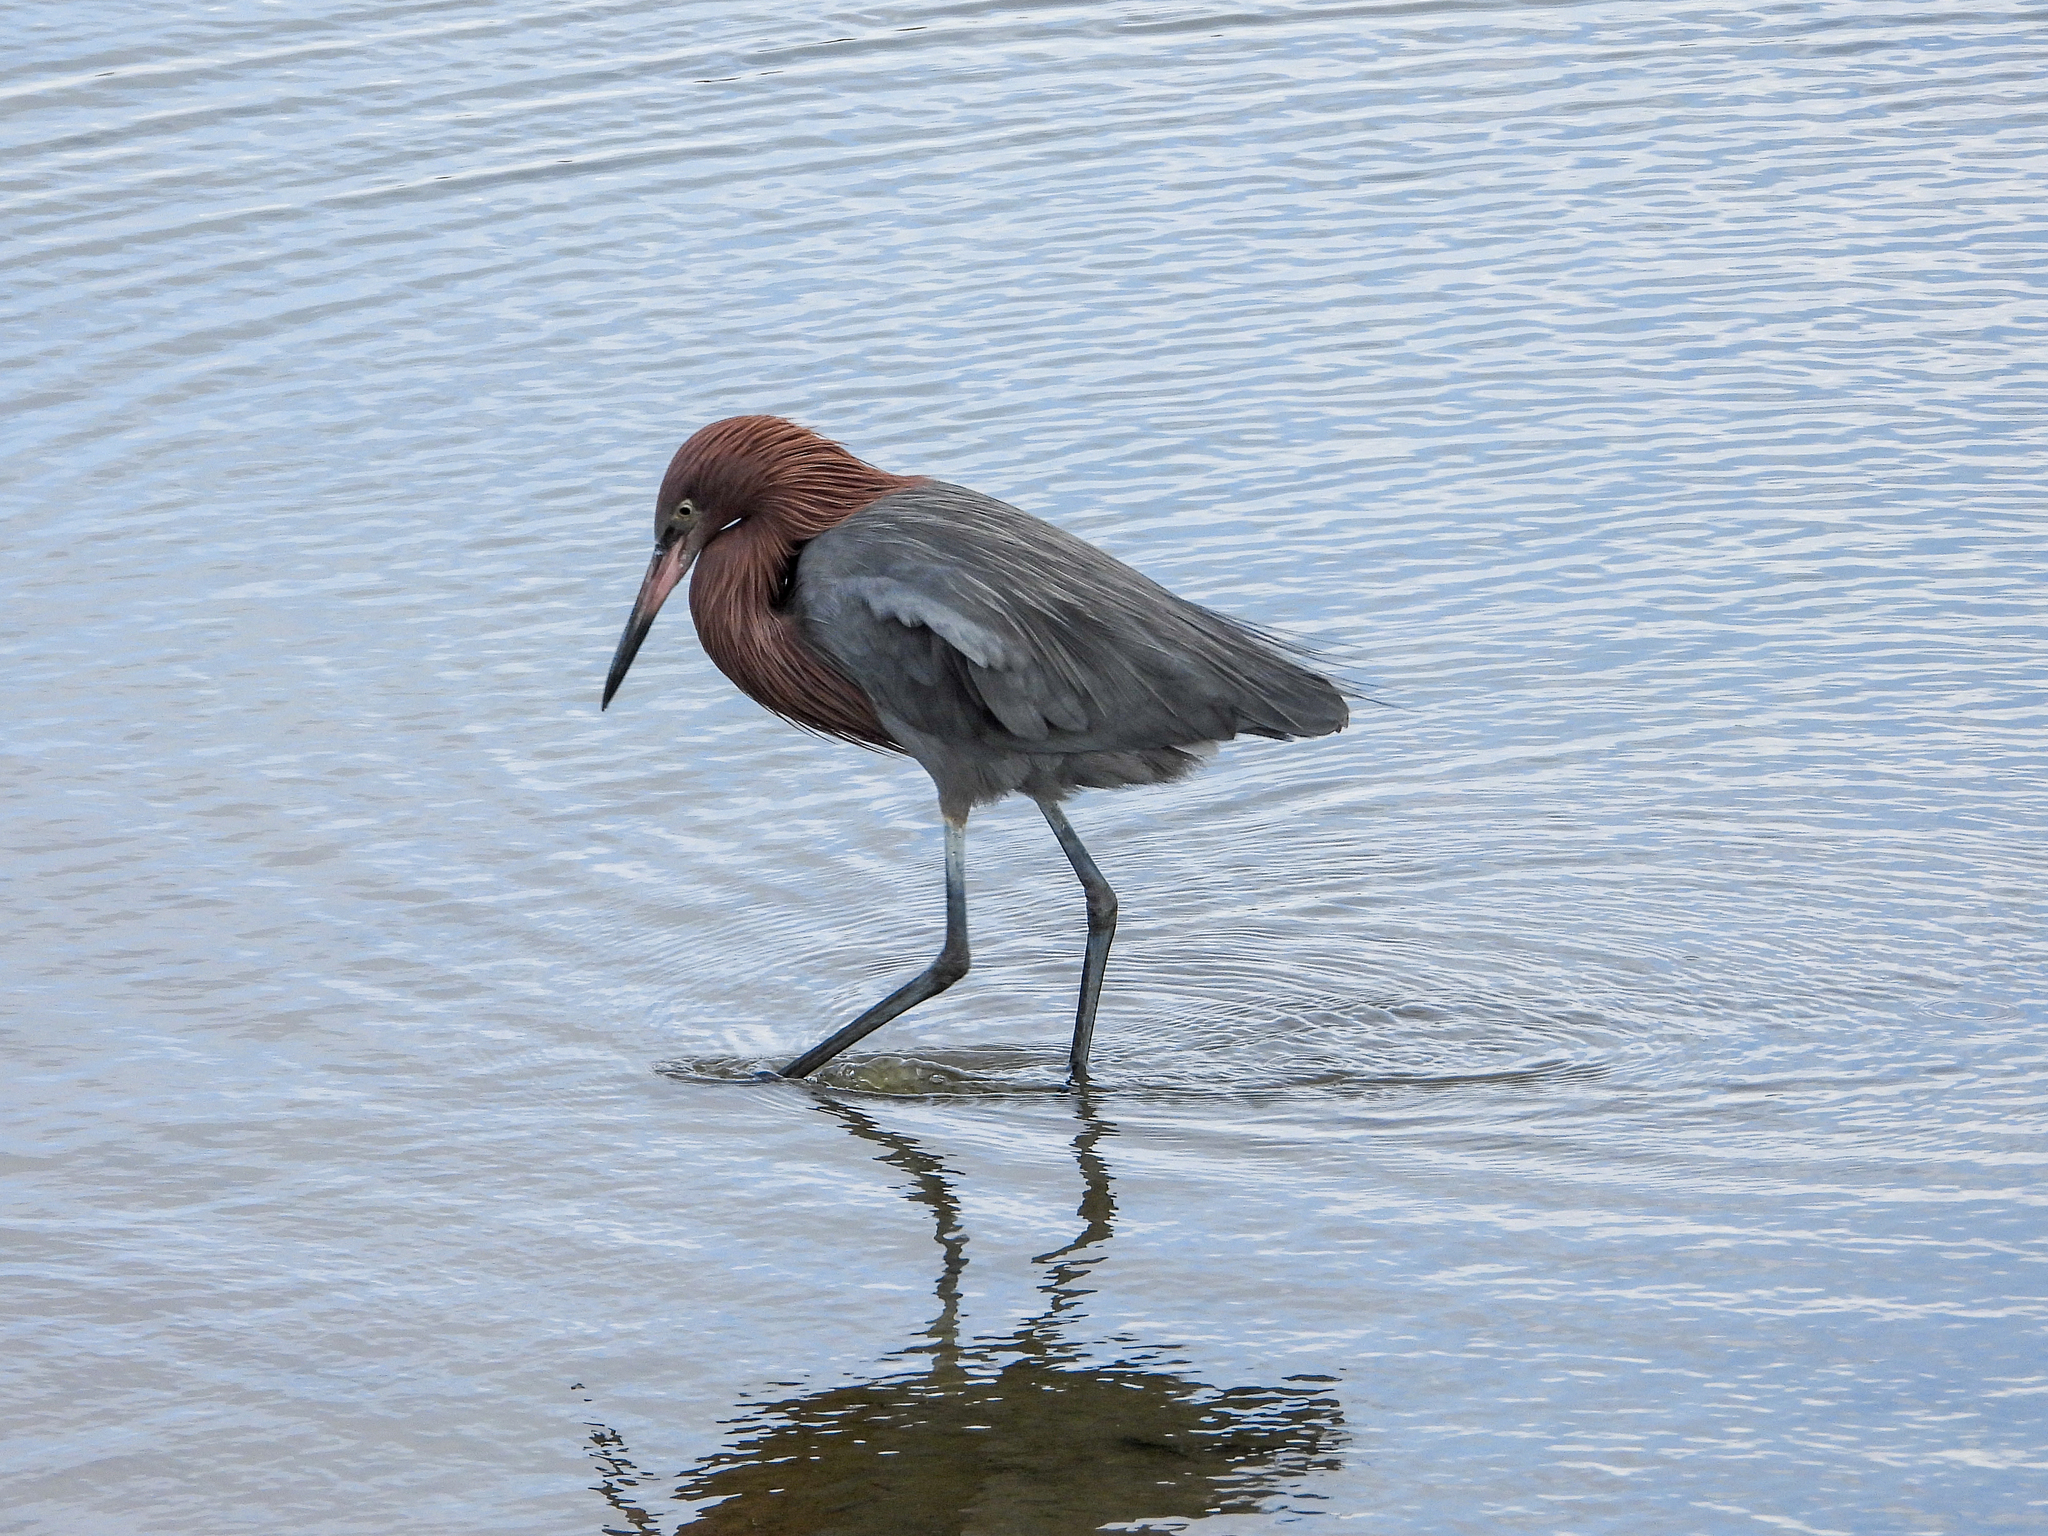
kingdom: Animalia
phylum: Chordata
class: Aves
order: Pelecaniformes
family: Ardeidae
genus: Egretta
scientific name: Egretta rufescens
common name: Reddish egret
